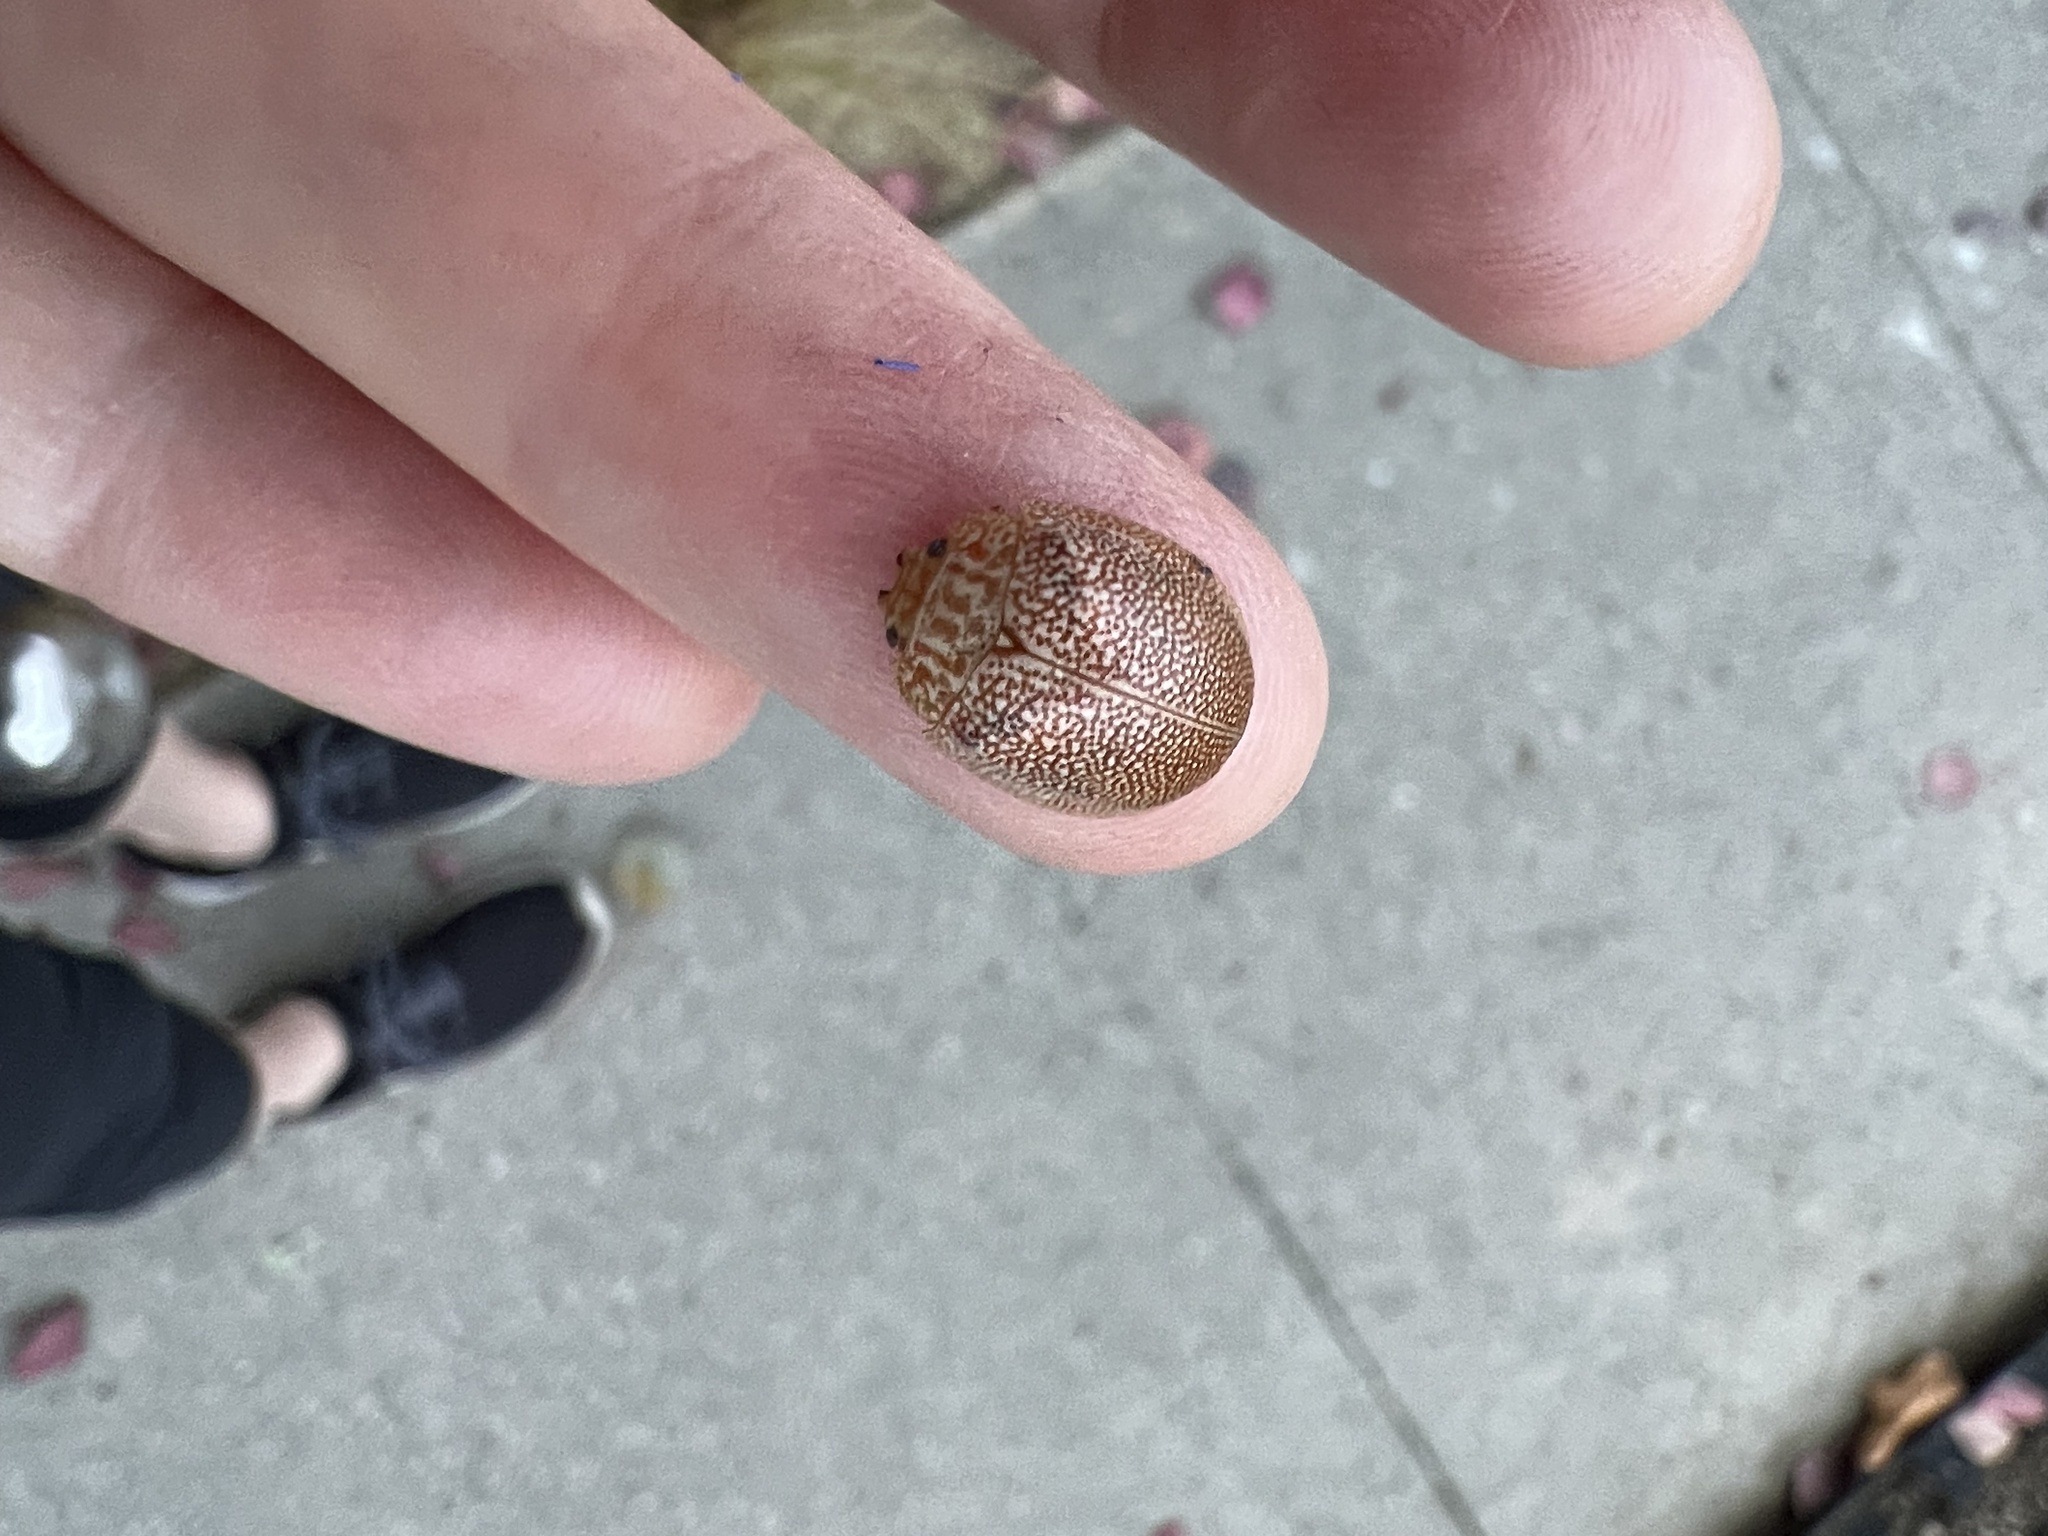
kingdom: Animalia
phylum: Arthropoda
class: Insecta
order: Coleoptera
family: Chrysomelidae
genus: Paropsis
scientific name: Paropsis
